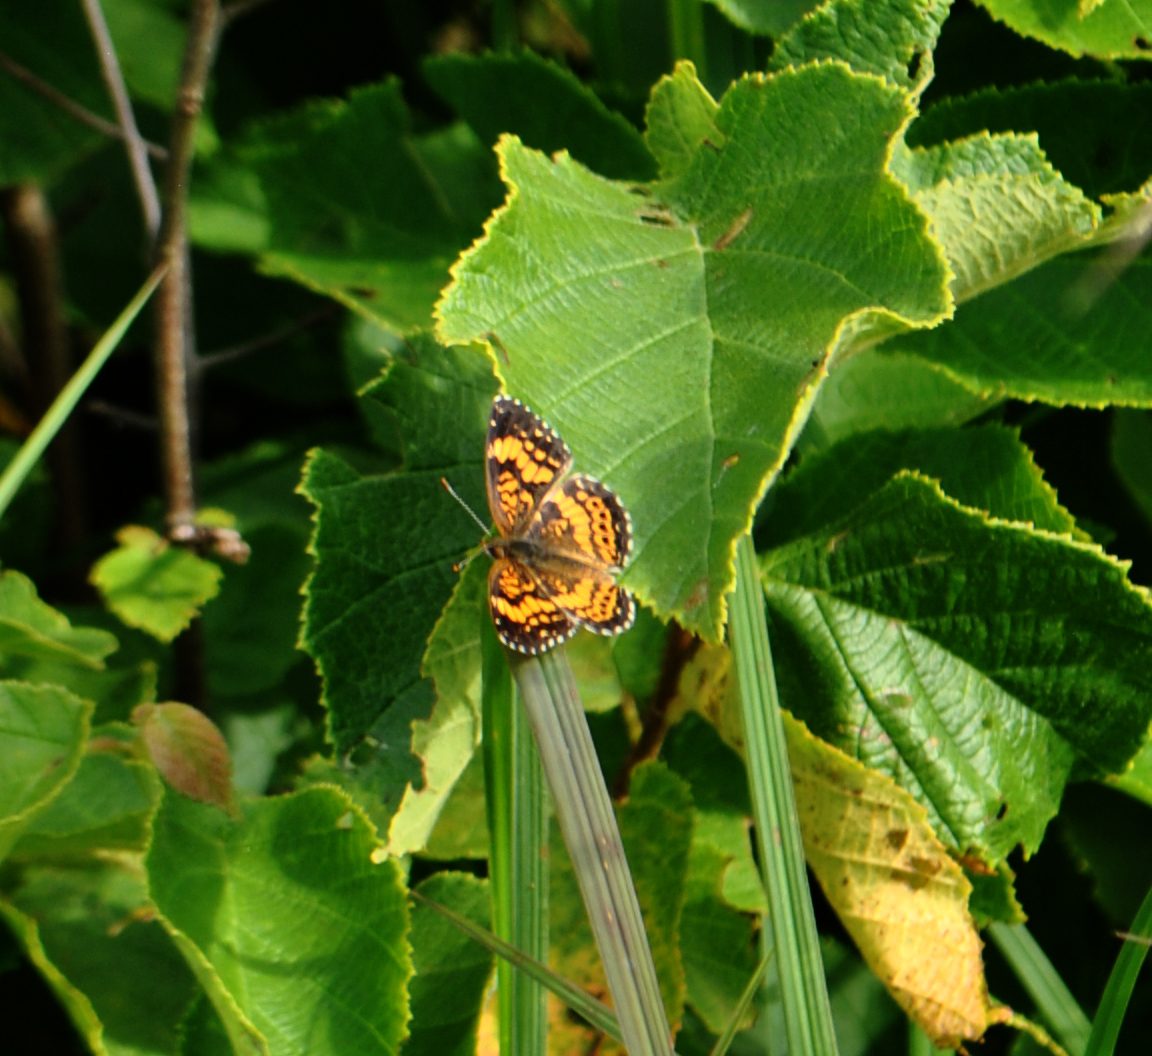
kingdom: Animalia
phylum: Arthropoda
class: Insecta
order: Lepidoptera
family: Nymphalidae
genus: Chlosyne
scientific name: Chlosyne gorgone
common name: Gorgone checkerspot
